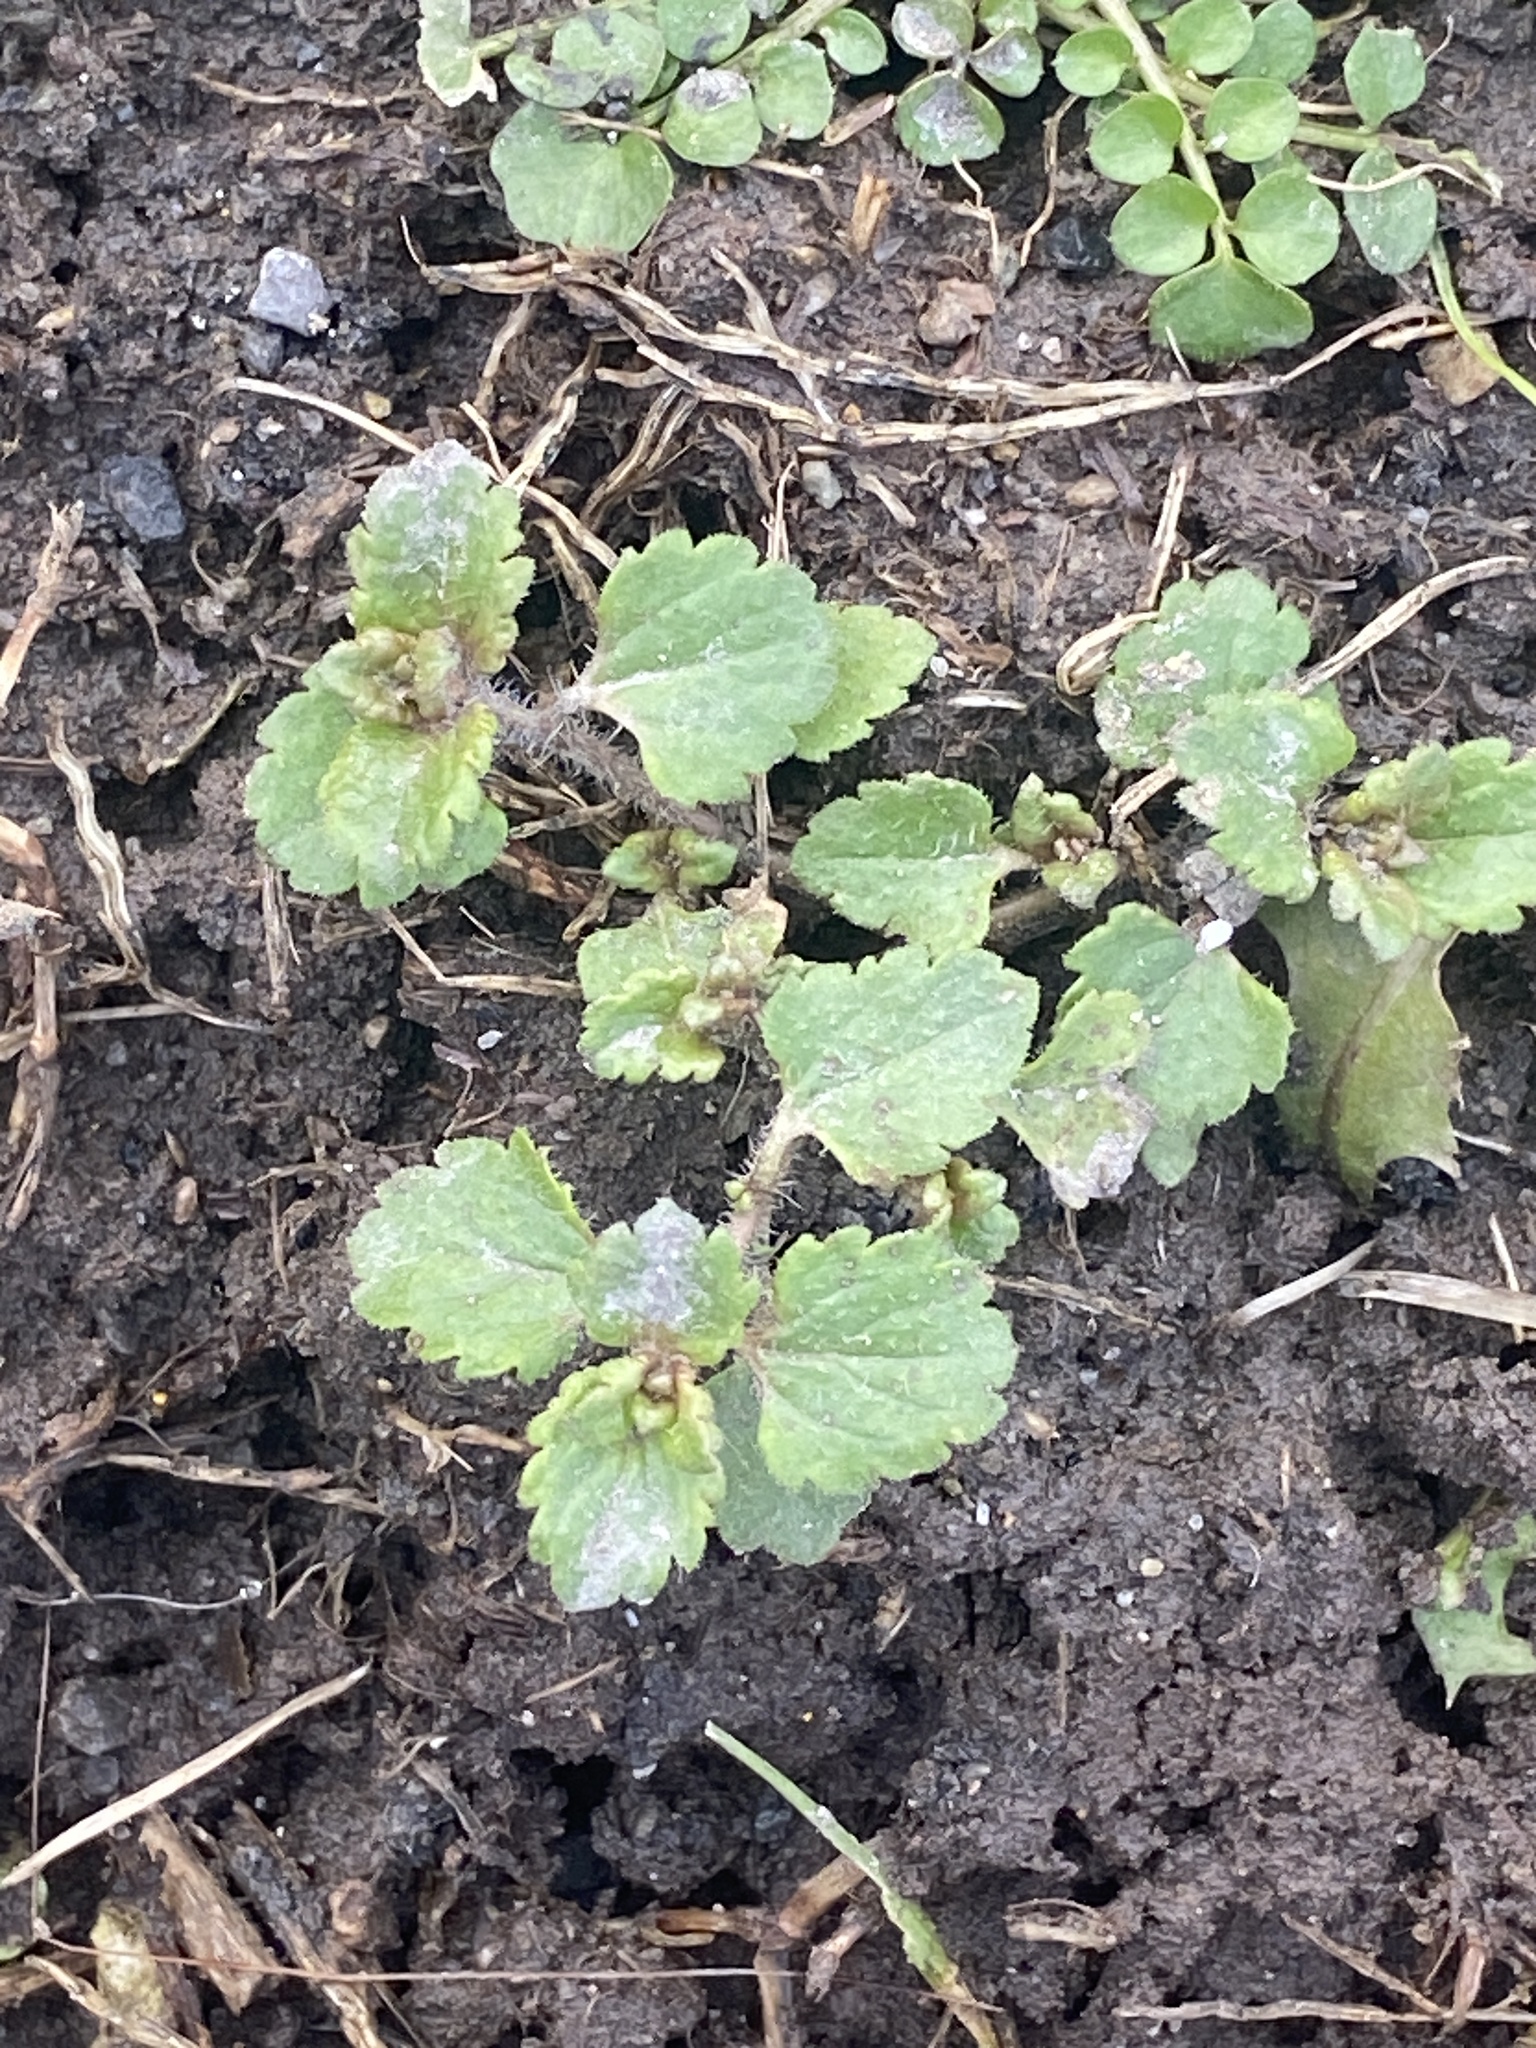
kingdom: Plantae
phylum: Tracheophyta
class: Magnoliopsida
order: Lamiales
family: Plantaginaceae
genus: Veronica
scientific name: Veronica persica
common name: Common field-speedwell
